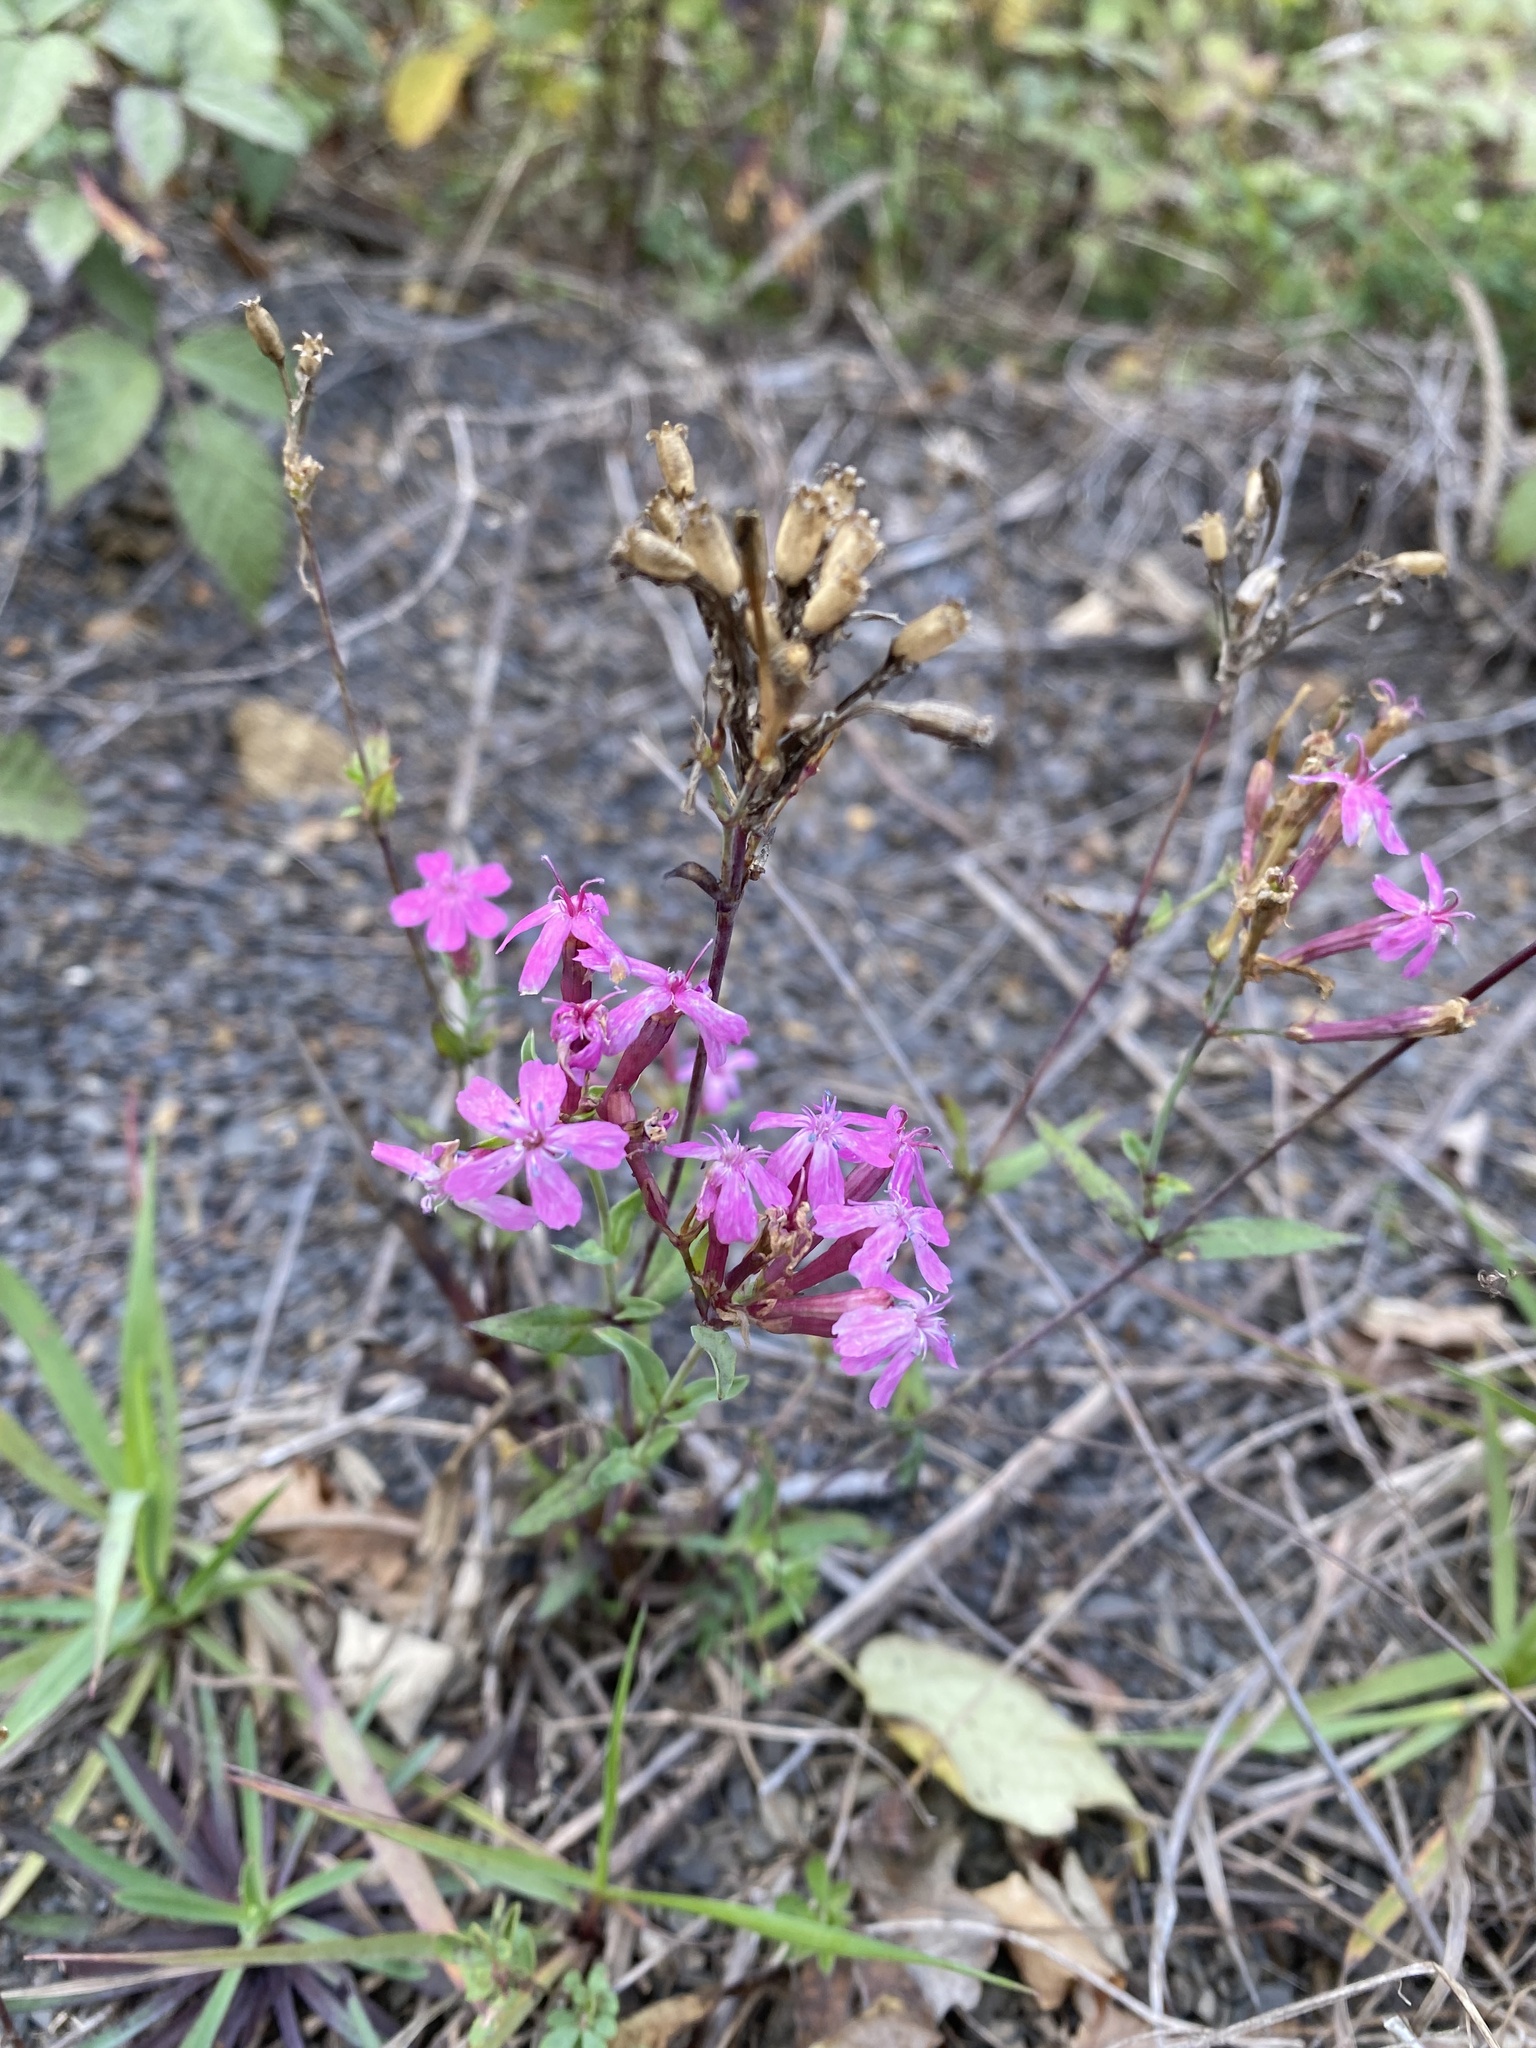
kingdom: Plantae
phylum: Tracheophyta
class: Magnoliopsida
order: Caryophyllales
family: Caryophyllaceae
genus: Atocion
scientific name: Atocion compactum
